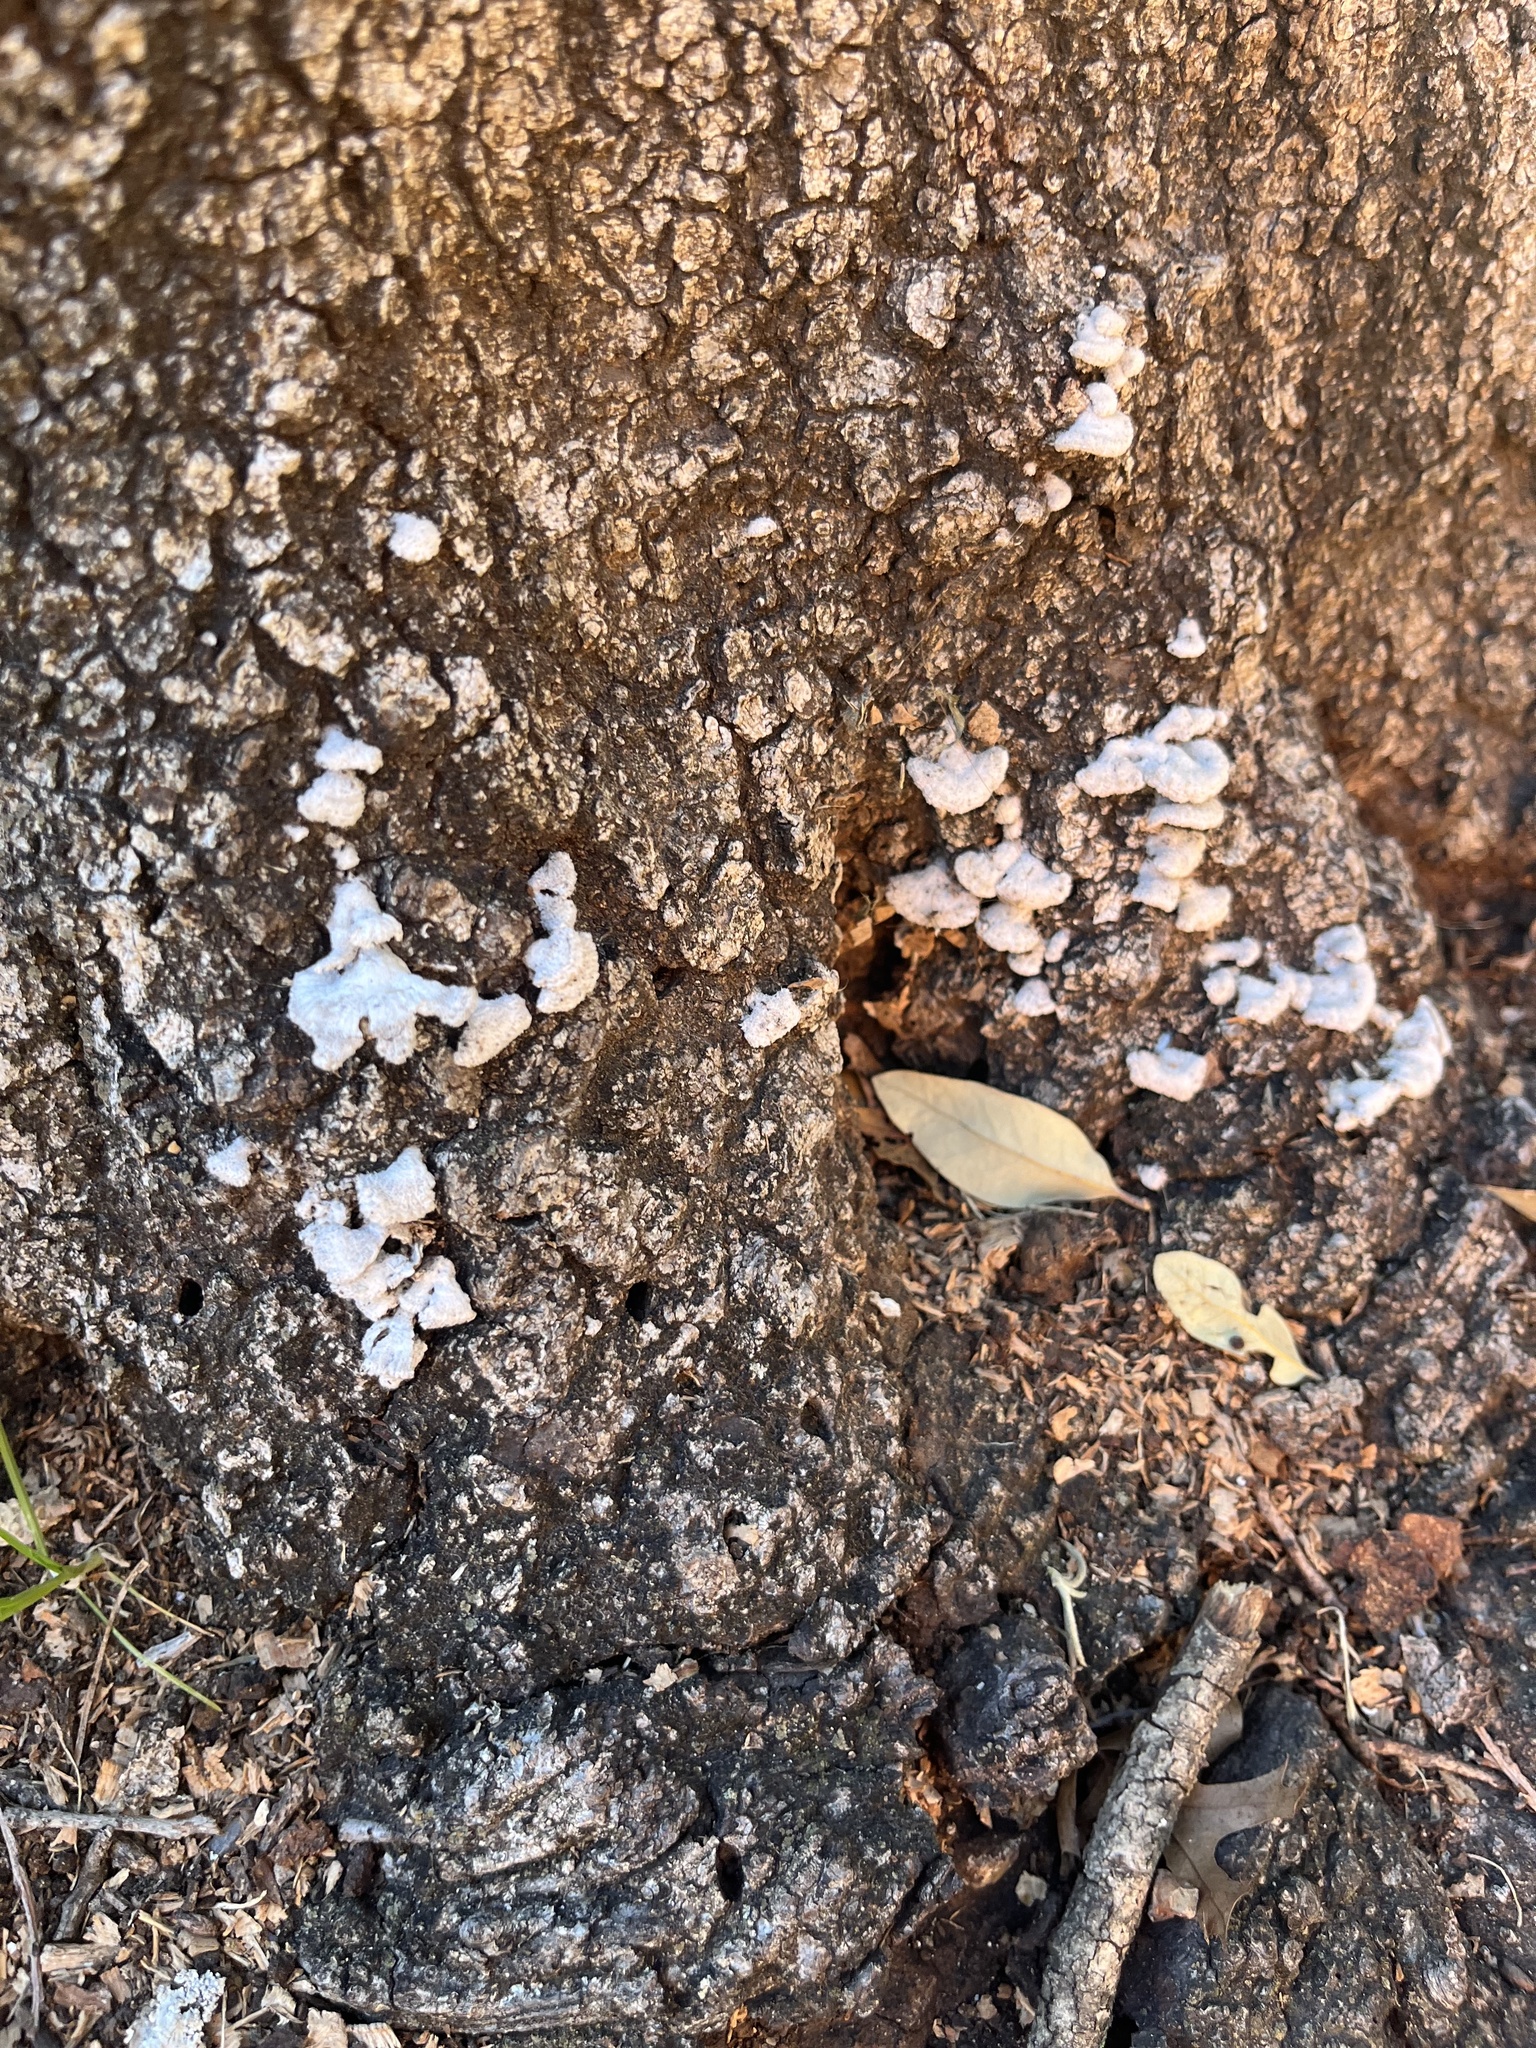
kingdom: Fungi
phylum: Basidiomycota
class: Agaricomycetes
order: Agaricales
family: Schizophyllaceae
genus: Schizophyllum
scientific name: Schizophyllum commune
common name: Common porecrust
